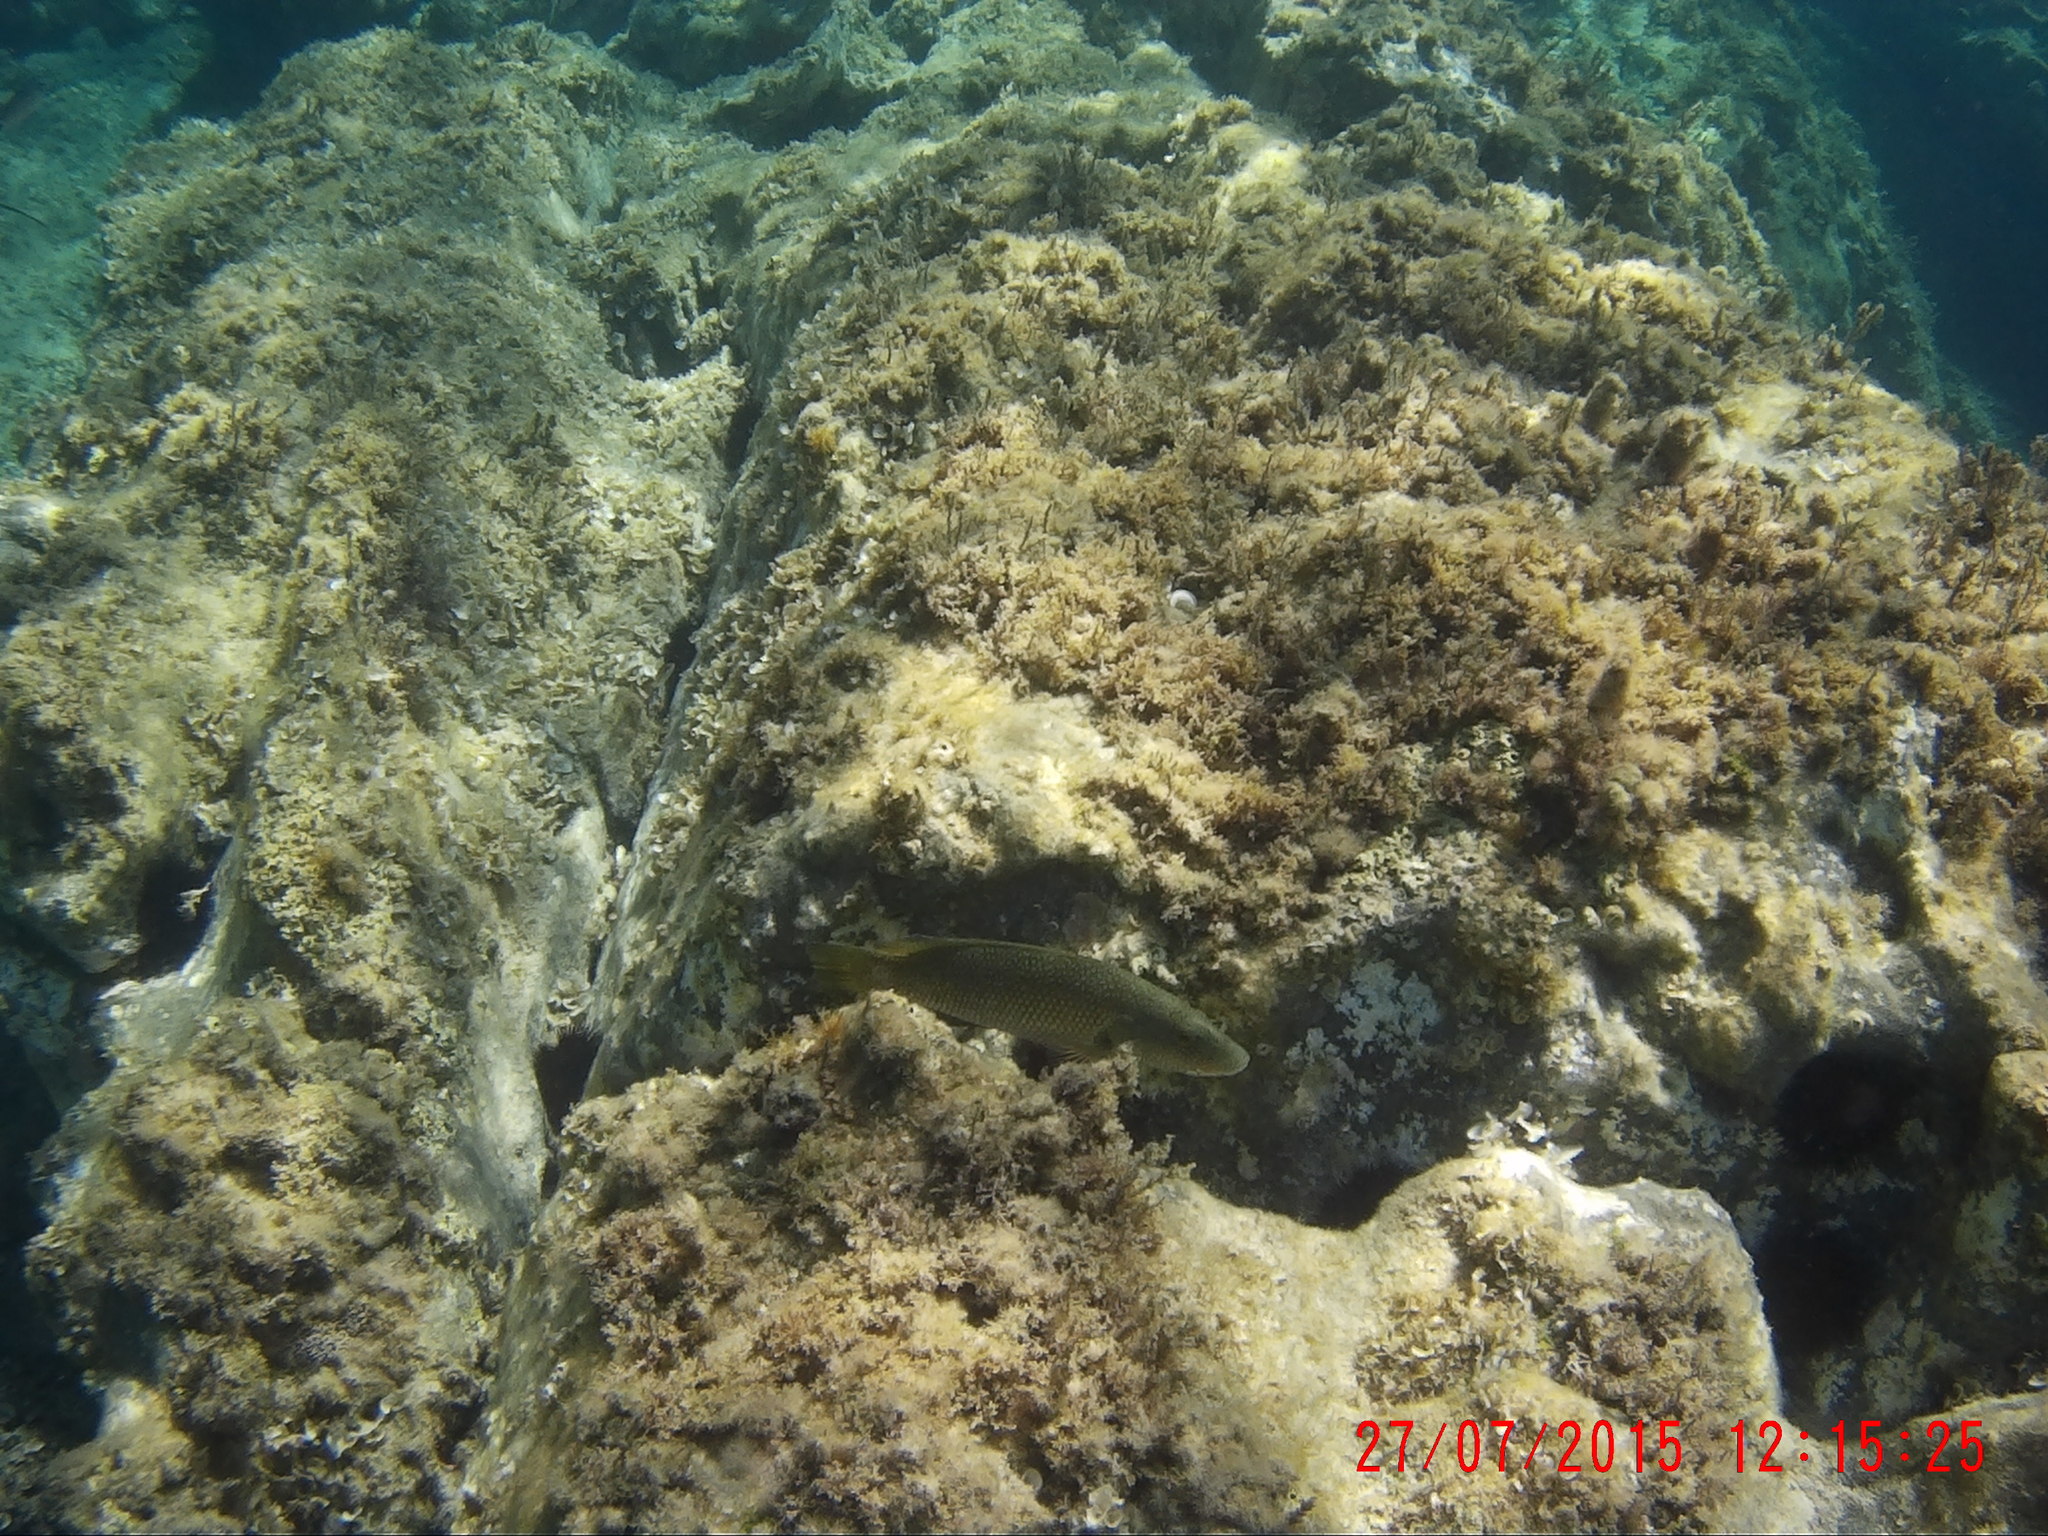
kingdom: Animalia
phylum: Chordata
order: Perciformes
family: Labridae
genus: Labrus
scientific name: Labrus
